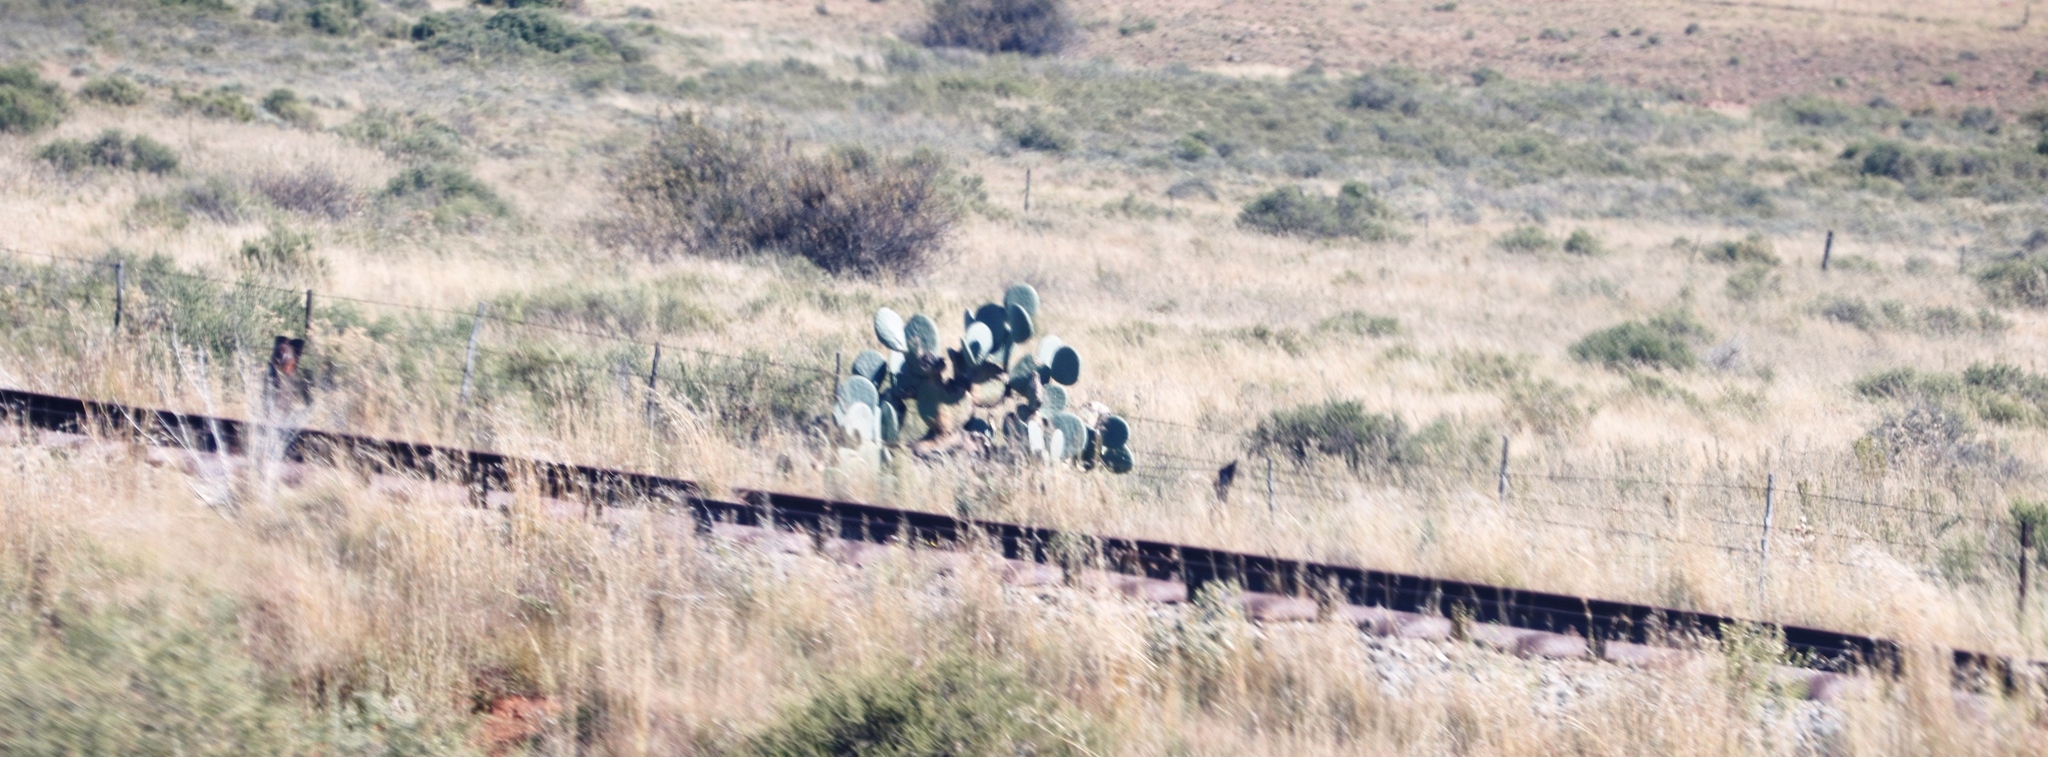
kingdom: Plantae
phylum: Tracheophyta
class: Magnoliopsida
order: Caryophyllales
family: Cactaceae
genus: Opuntia
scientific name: Opuntia robusta
